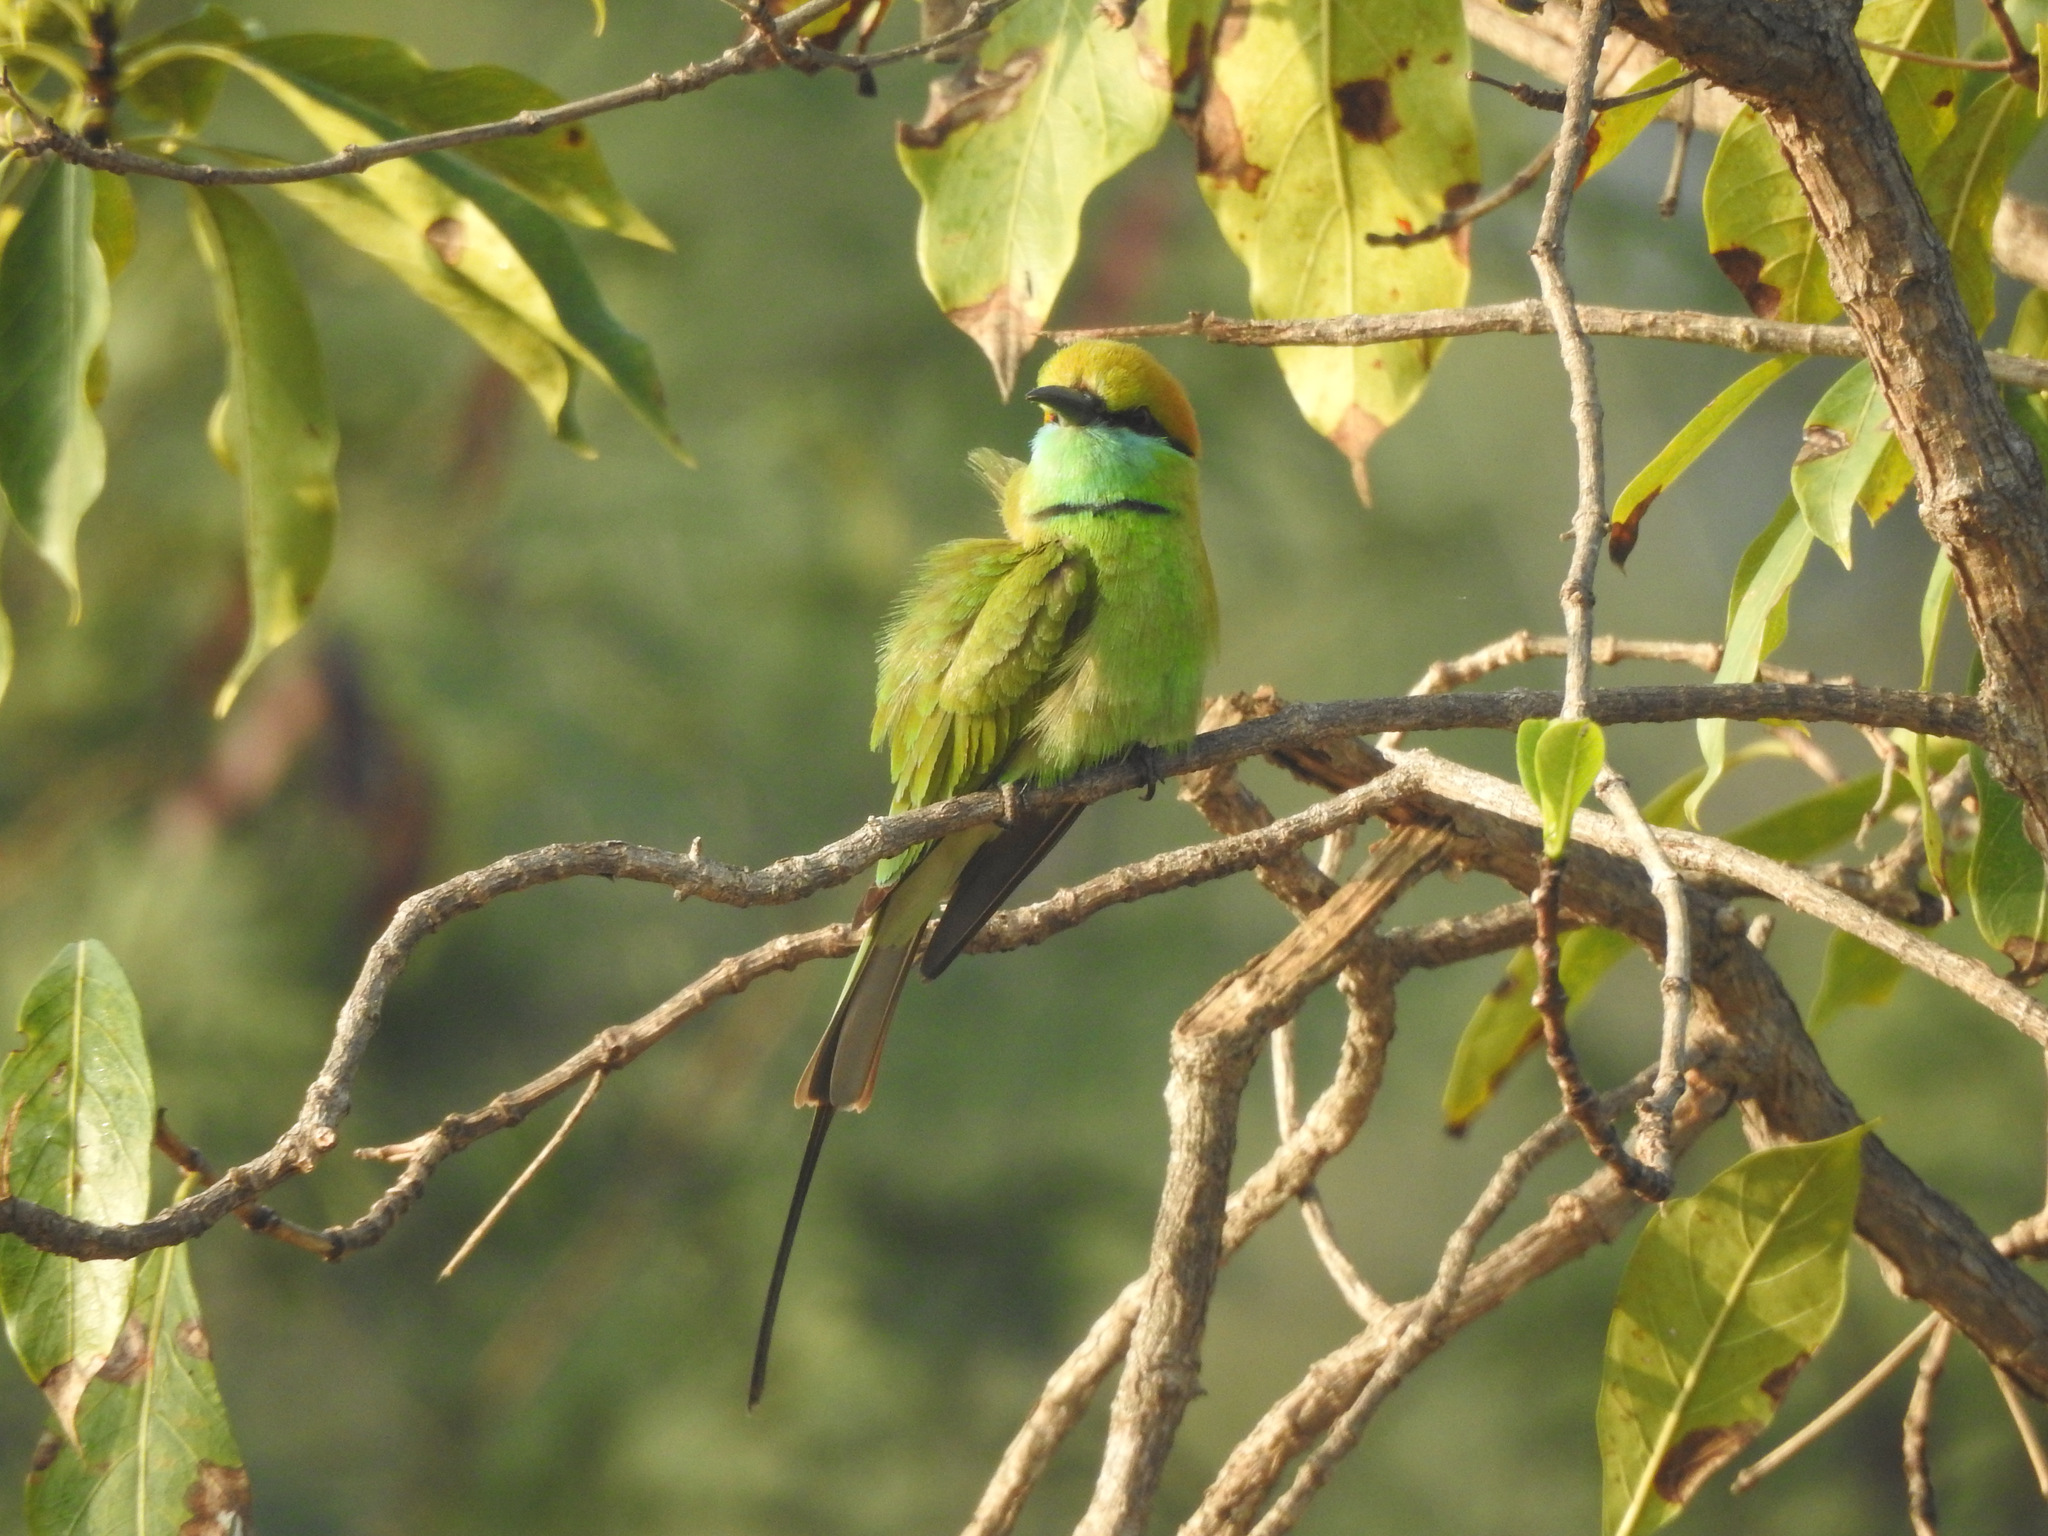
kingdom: Animalia
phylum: Chordata
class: Aves
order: Coraciiformes
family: Meropidae
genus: Merops
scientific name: Merops orientalis
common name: Green bee-eater
